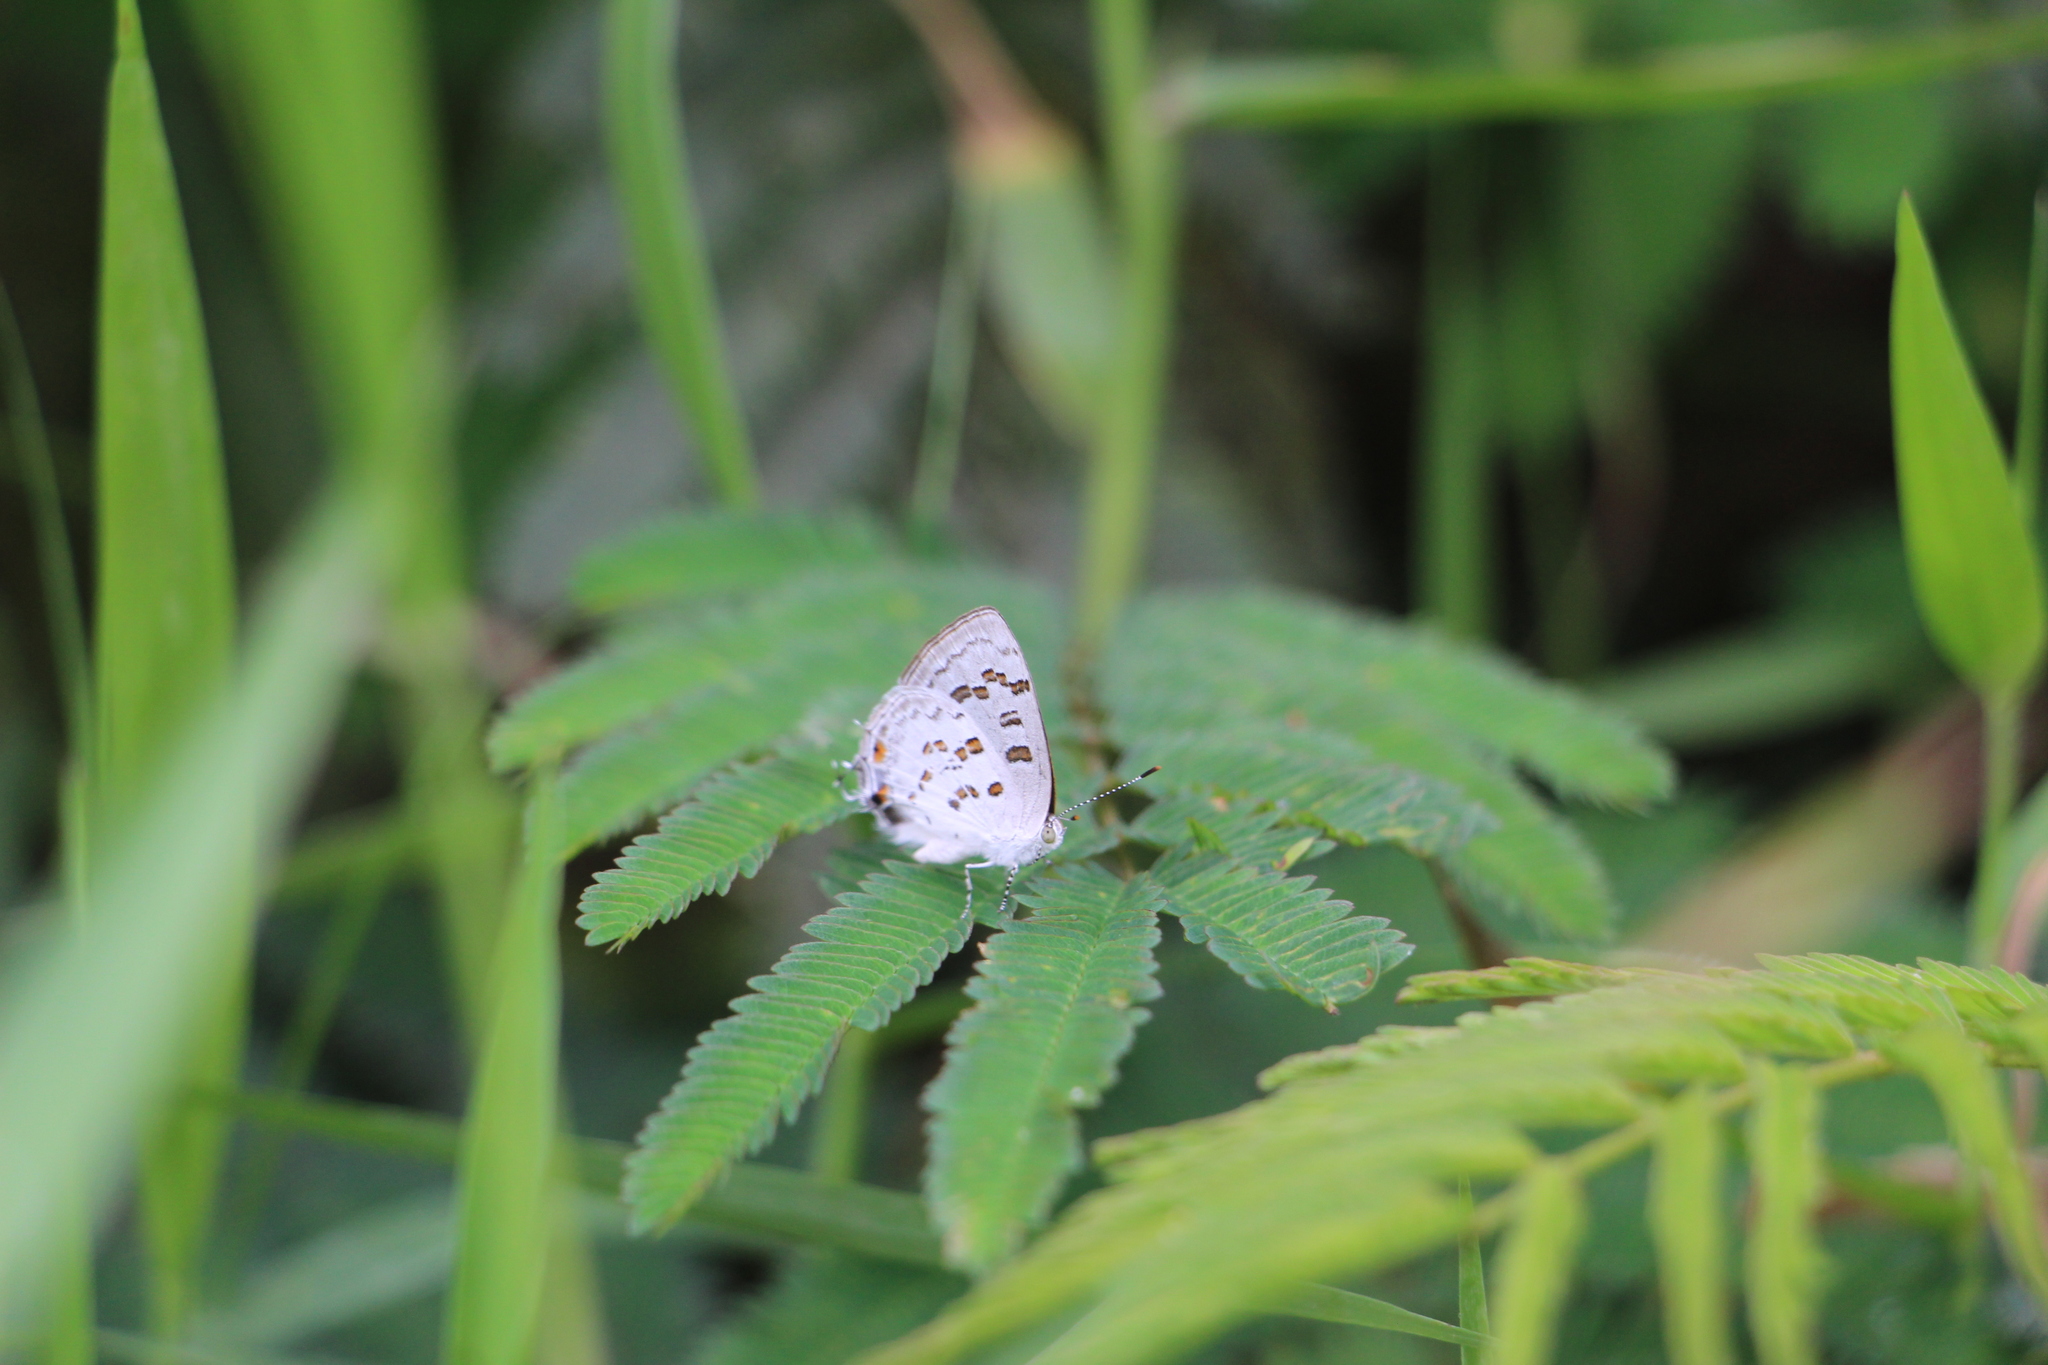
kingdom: Animalia
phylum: Arthropoda
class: Insecta
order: Lepidoptera
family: Lycaenidae
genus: Thecla
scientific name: Thecla una
